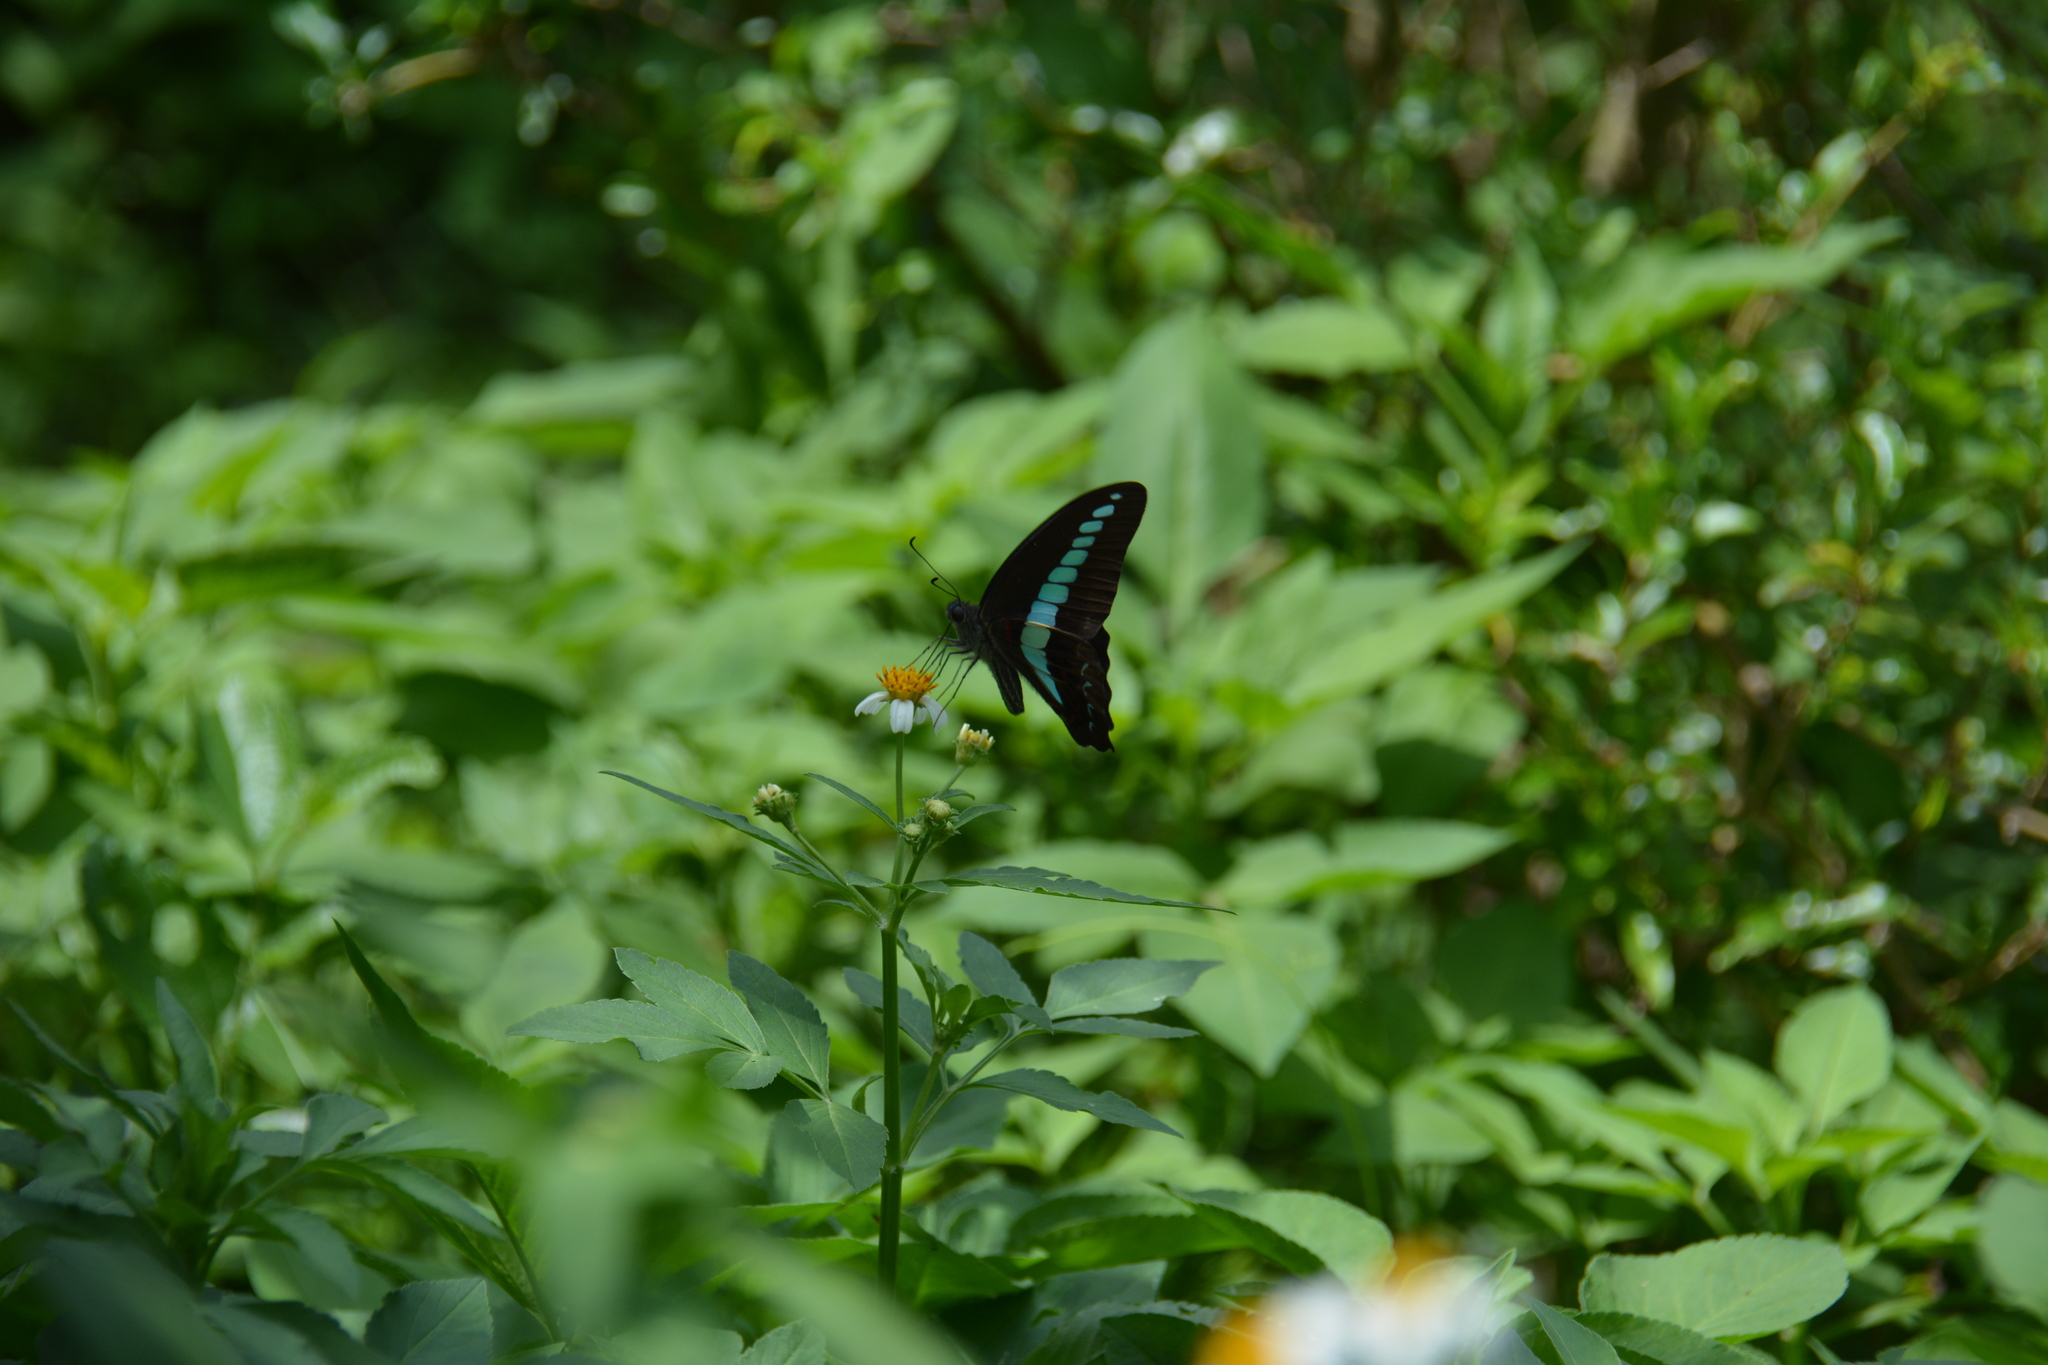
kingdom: Fungi
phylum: Ascomycota
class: Sordariomycetes
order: Microascales
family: Microascaceae
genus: Graphium
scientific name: Graphium sarpedon
